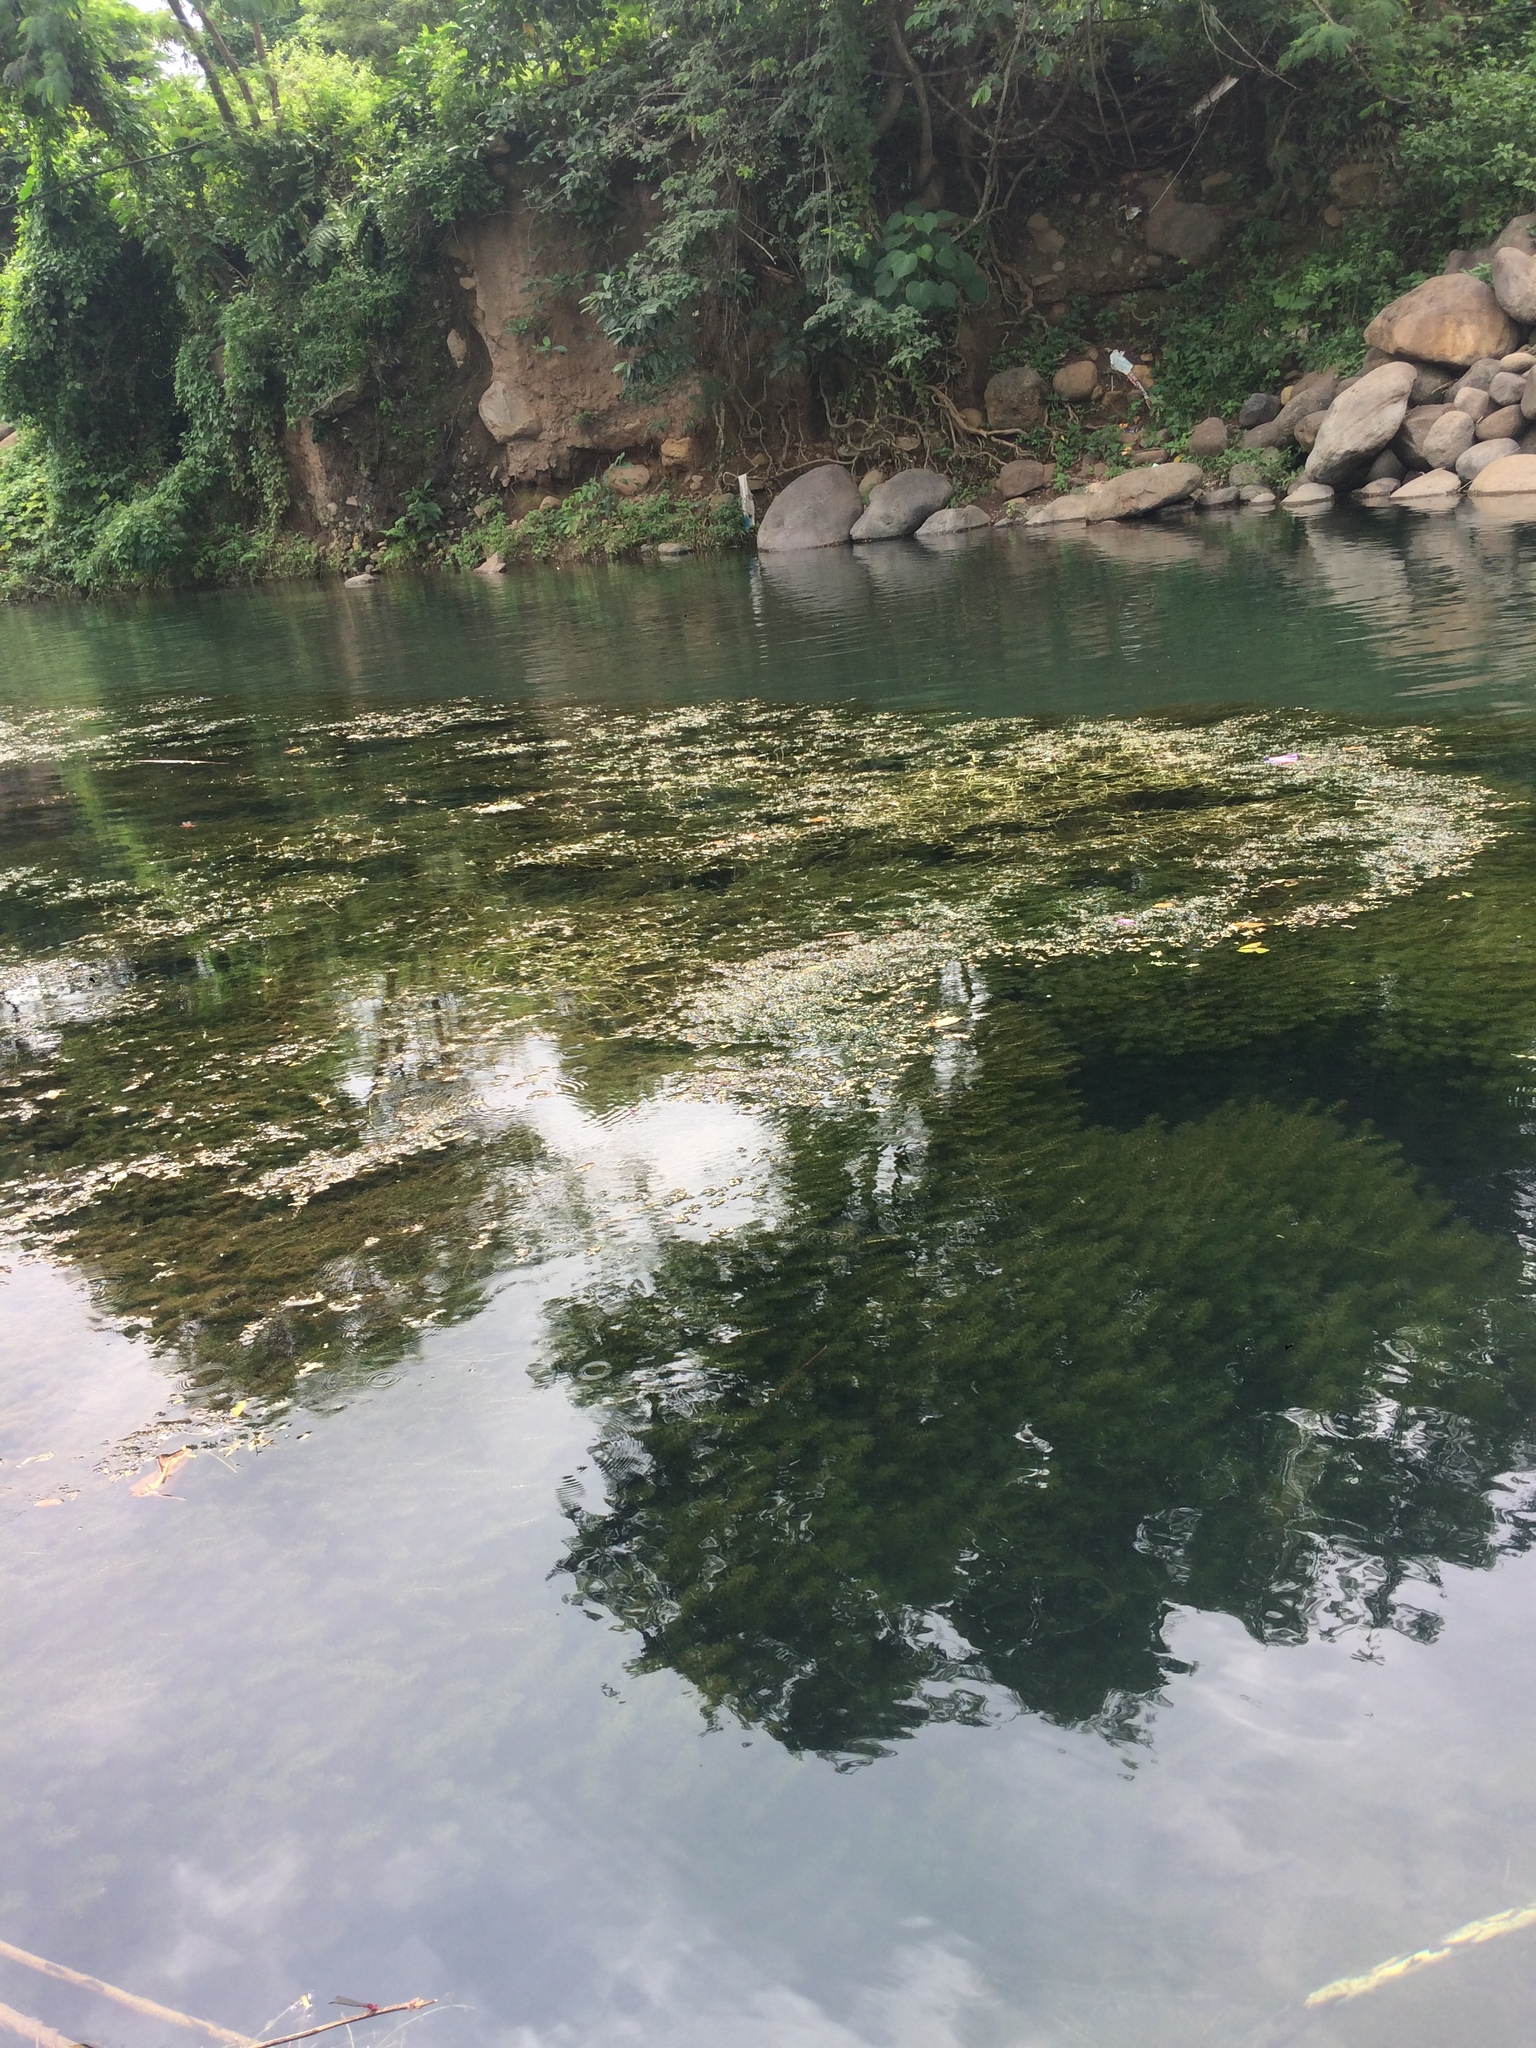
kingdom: Plantae
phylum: Tracheophyta
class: Liliopsida
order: Alismatales
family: Hydrocharitaceae
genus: Hydrilla
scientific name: Hydrilla verticillata
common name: Florida-elodea
